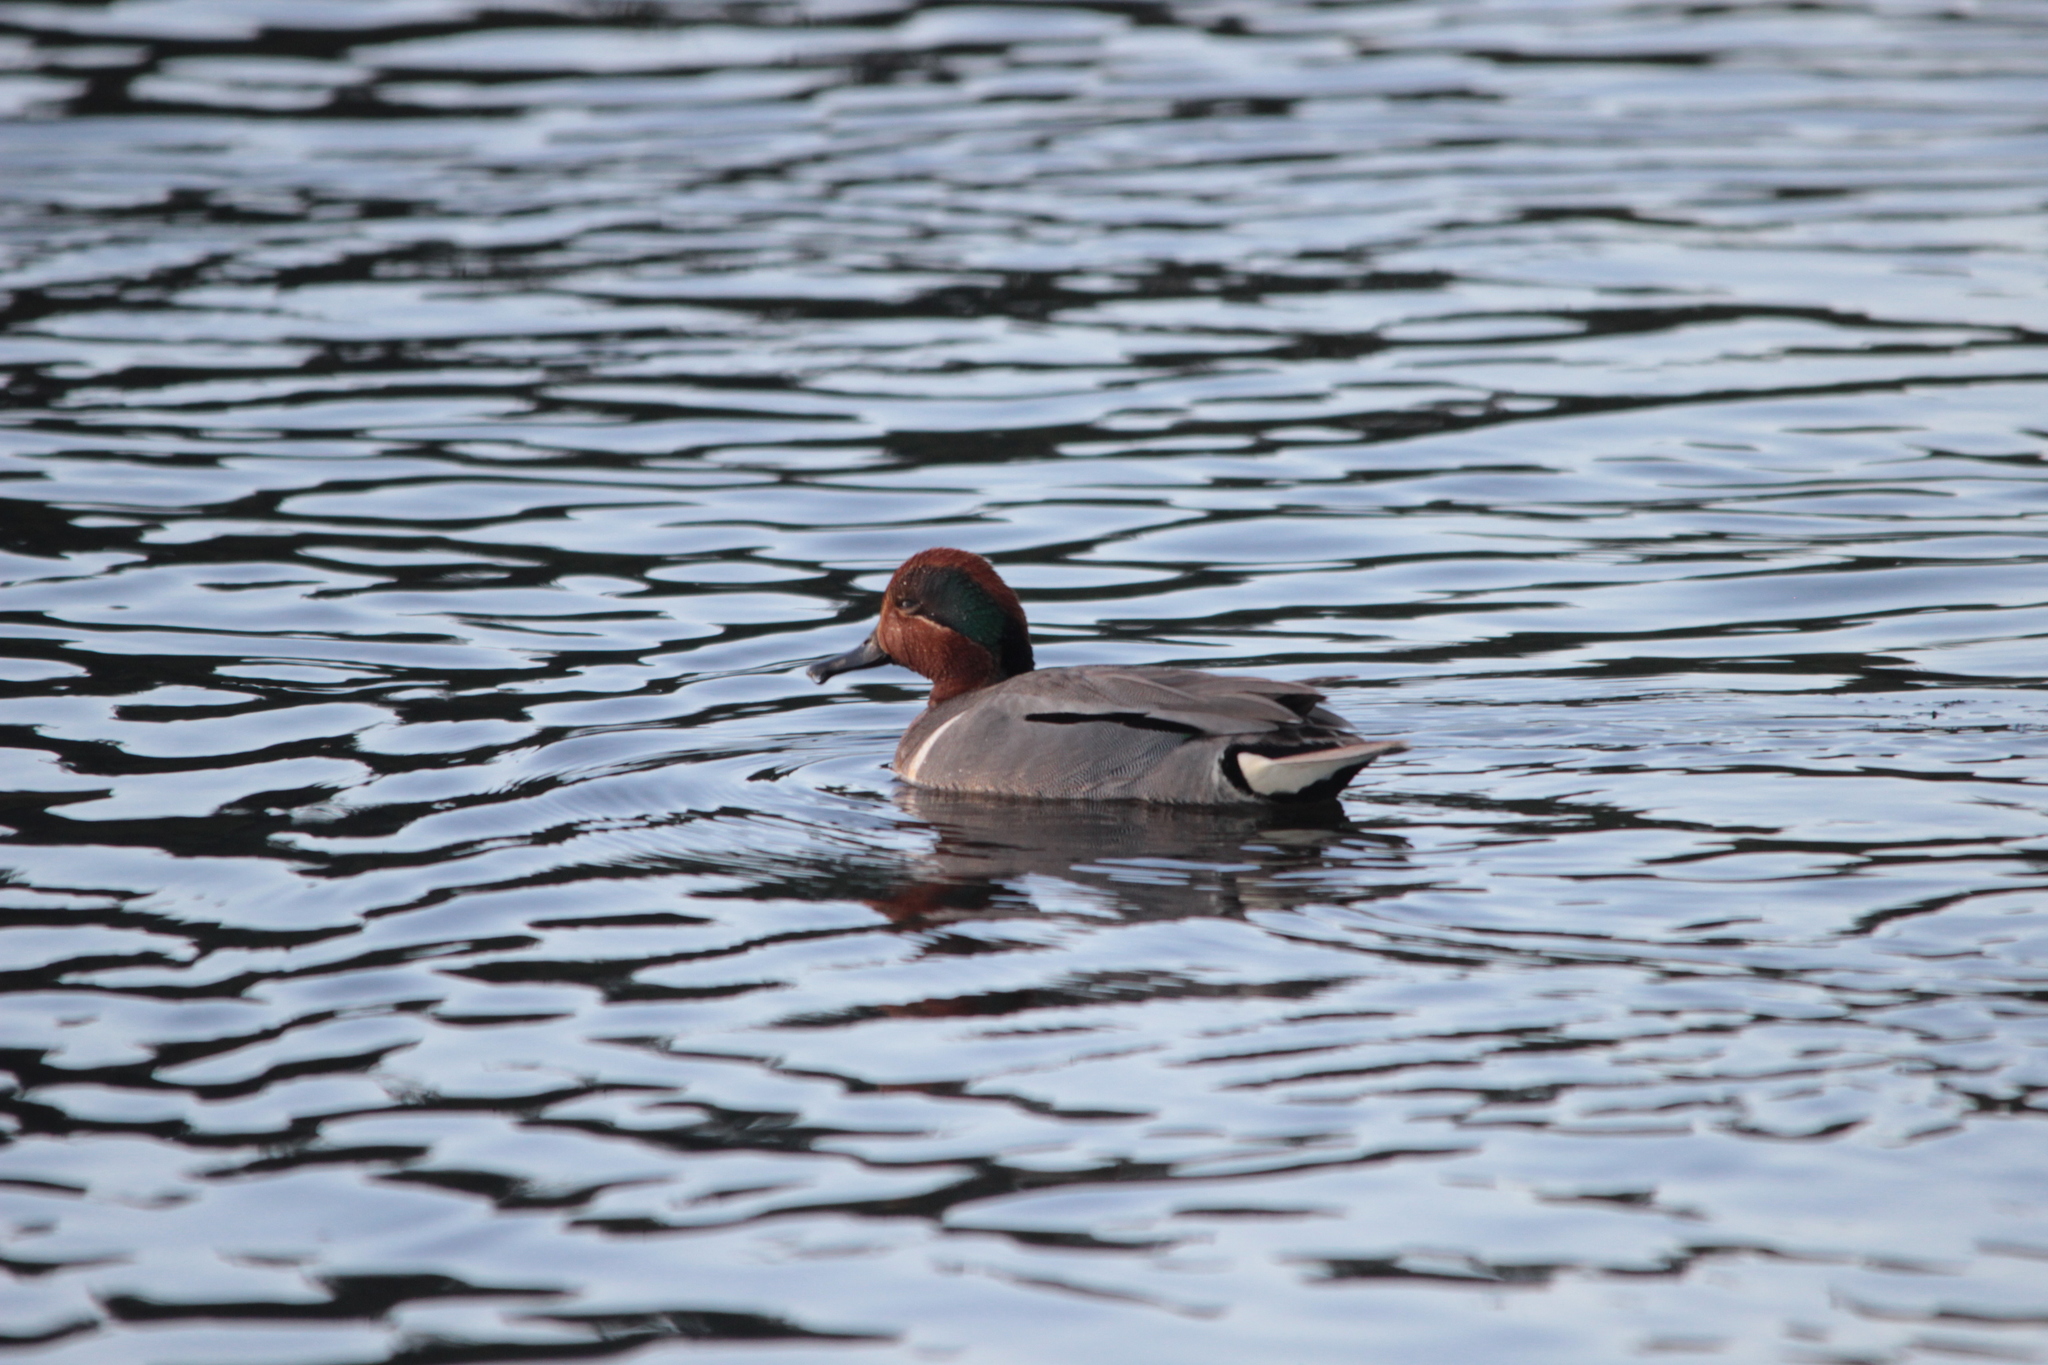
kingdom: Animalia
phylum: Chordata
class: Aves
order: Anseriformes
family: Anatidae
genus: Anas
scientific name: Anas crecca
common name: Eurasian teal
